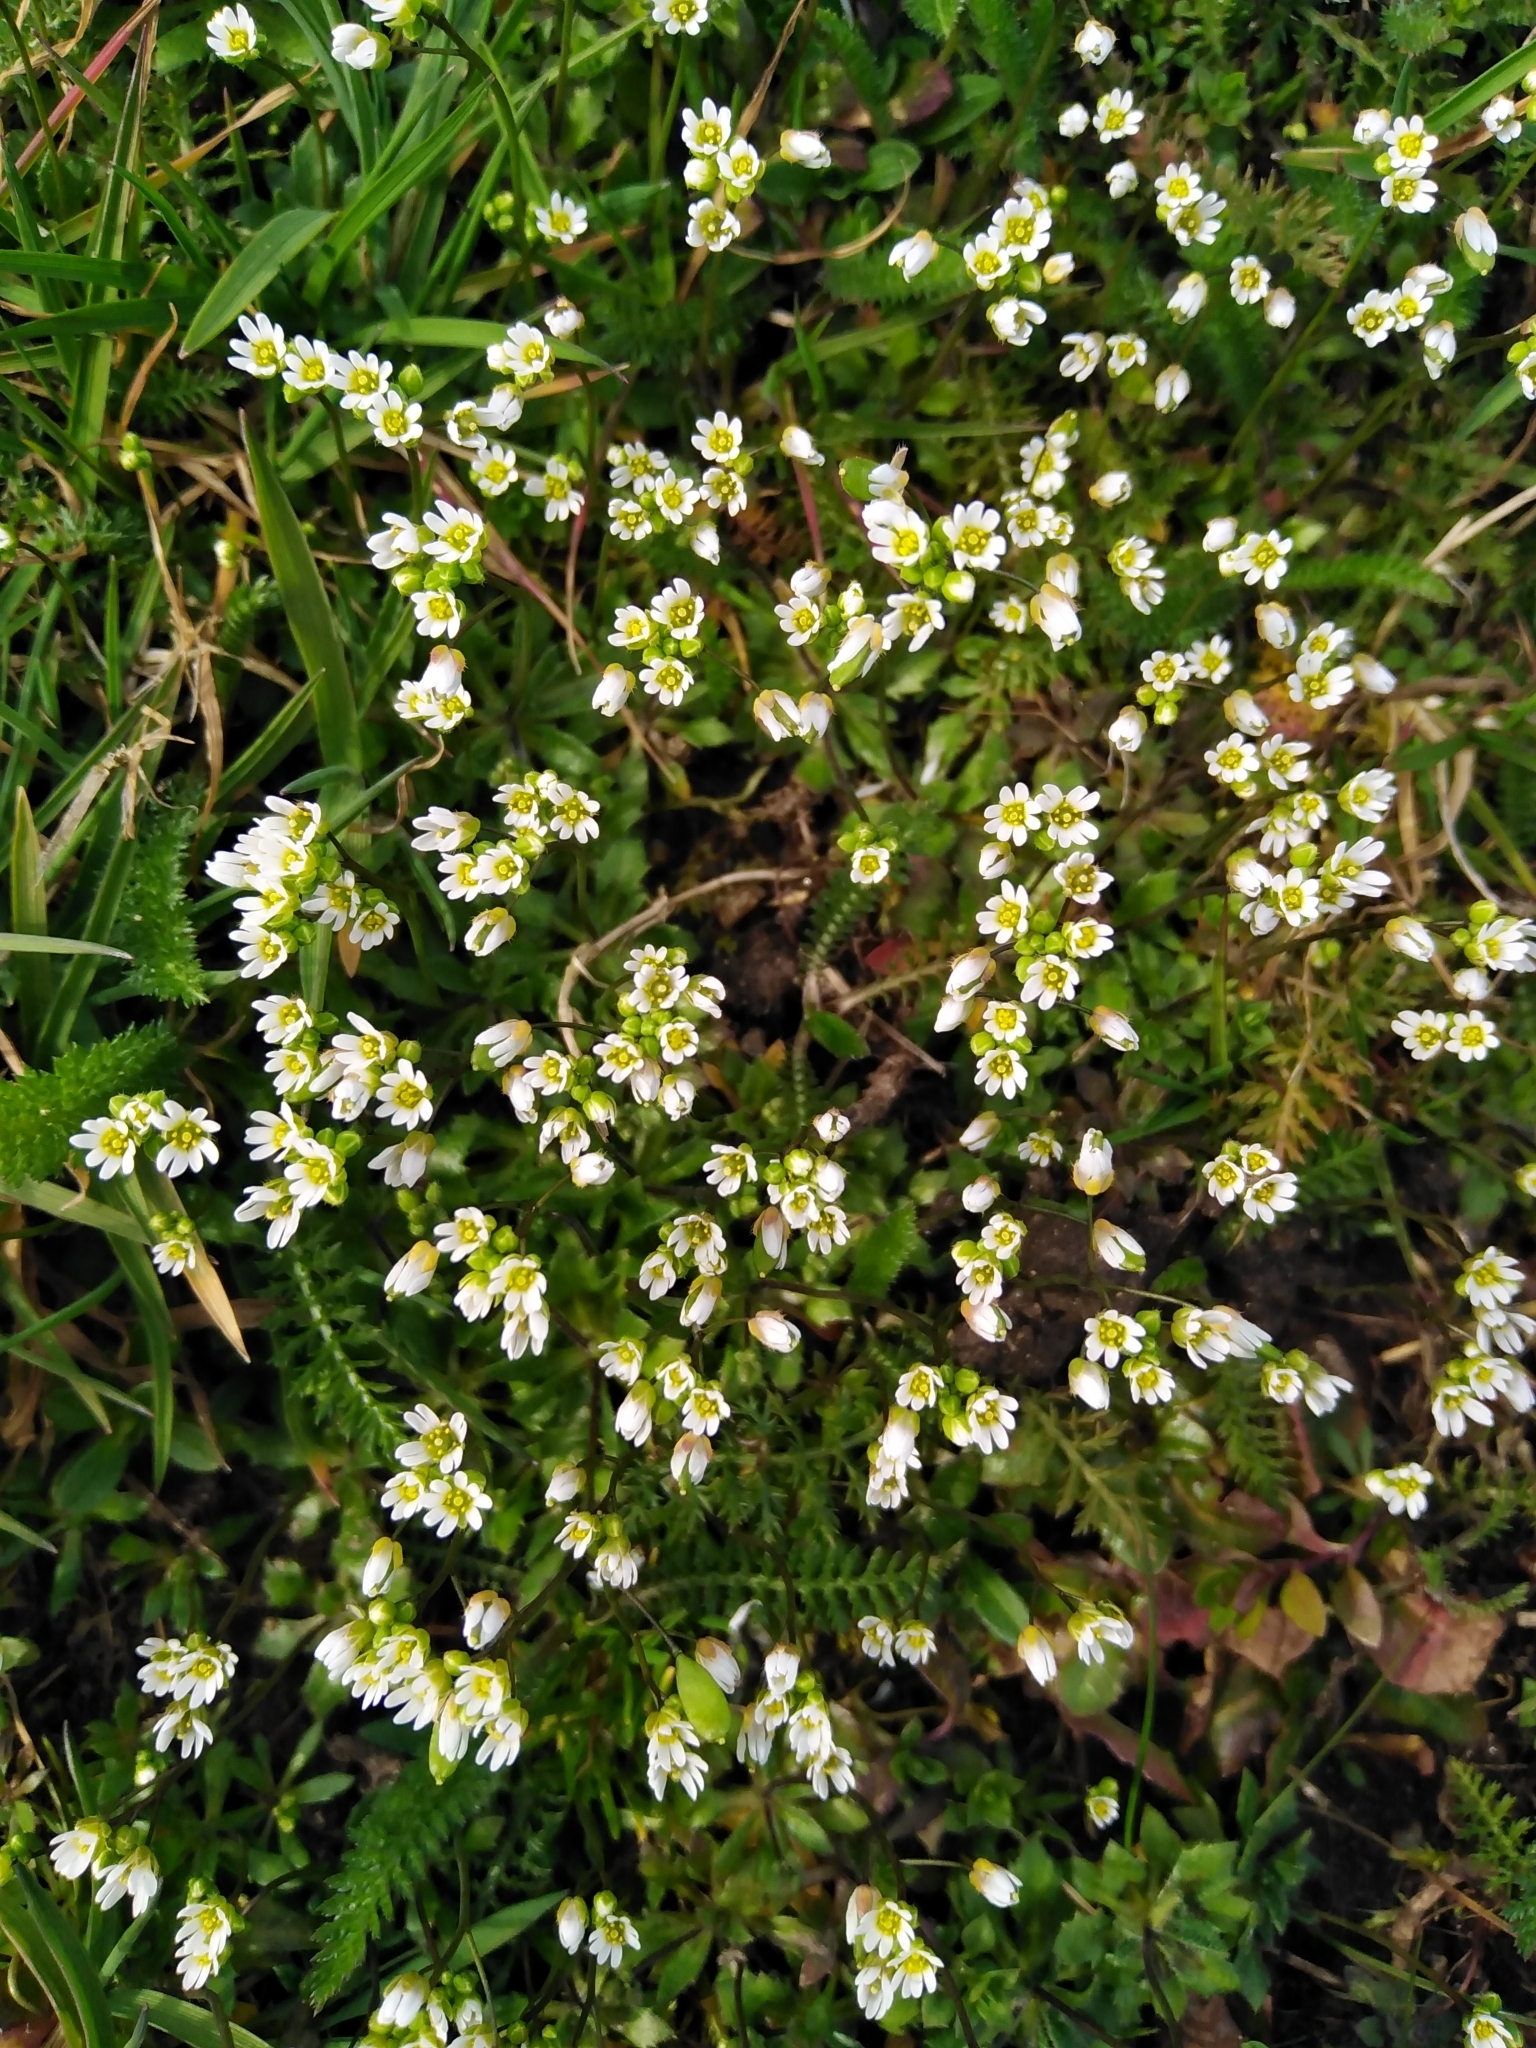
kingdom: Plantae
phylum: Tracheophyta
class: Magnoliopsida
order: Brassicales
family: Brassicaceae
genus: Draba
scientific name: Draba verna
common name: Spring draba
